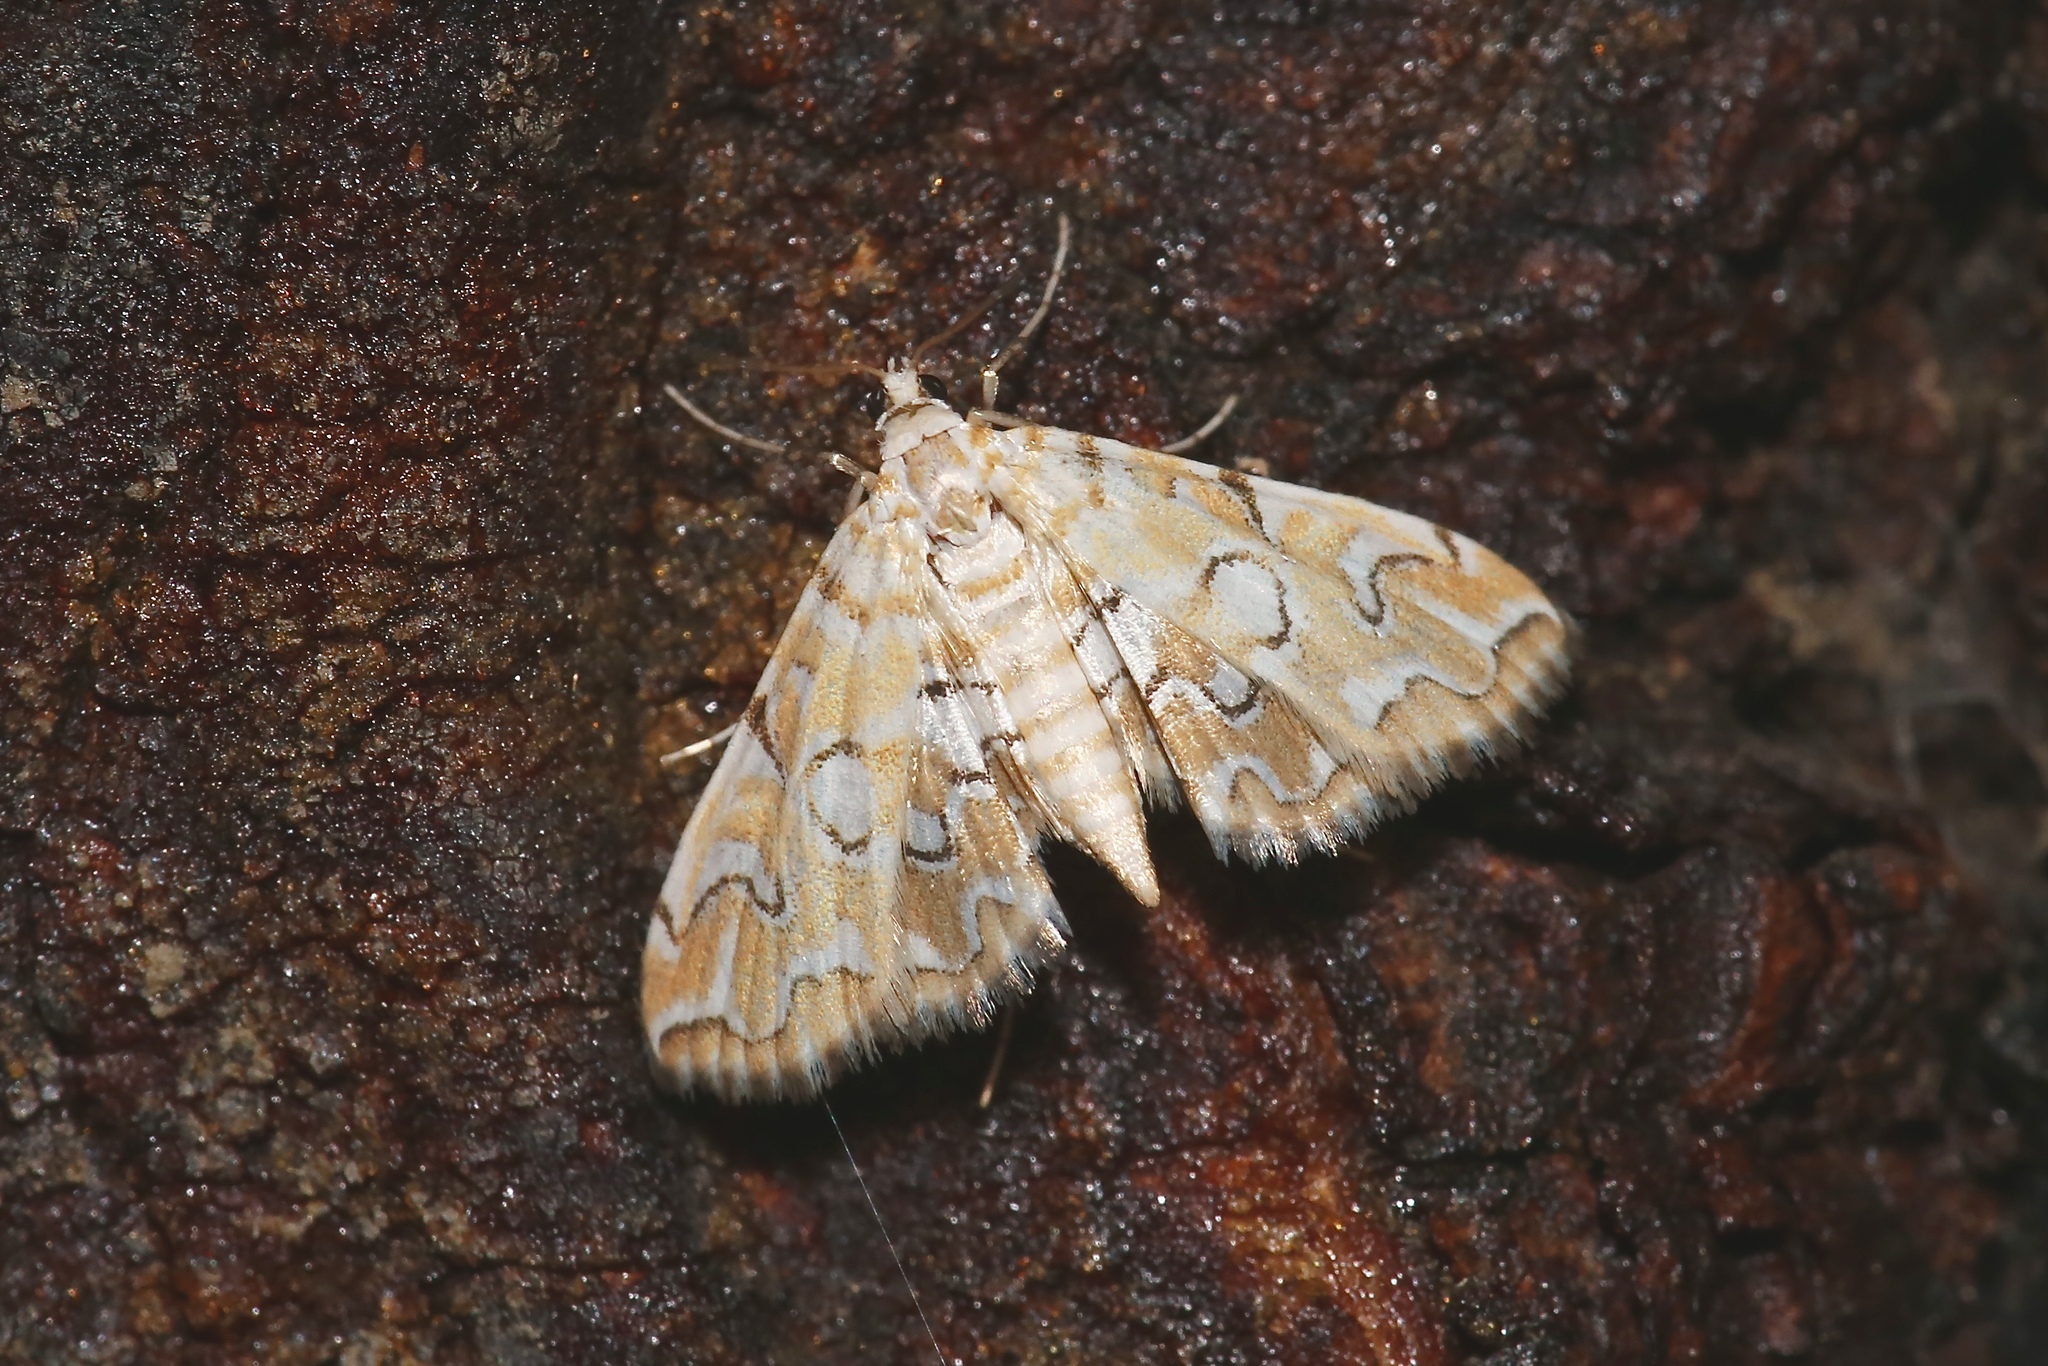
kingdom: Animalia
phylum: Arthropoda
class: Insecta
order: Lepidoptera
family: Crambidae
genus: Elophila
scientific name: Elophila icciusalis
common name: Pondside pyralid moth
